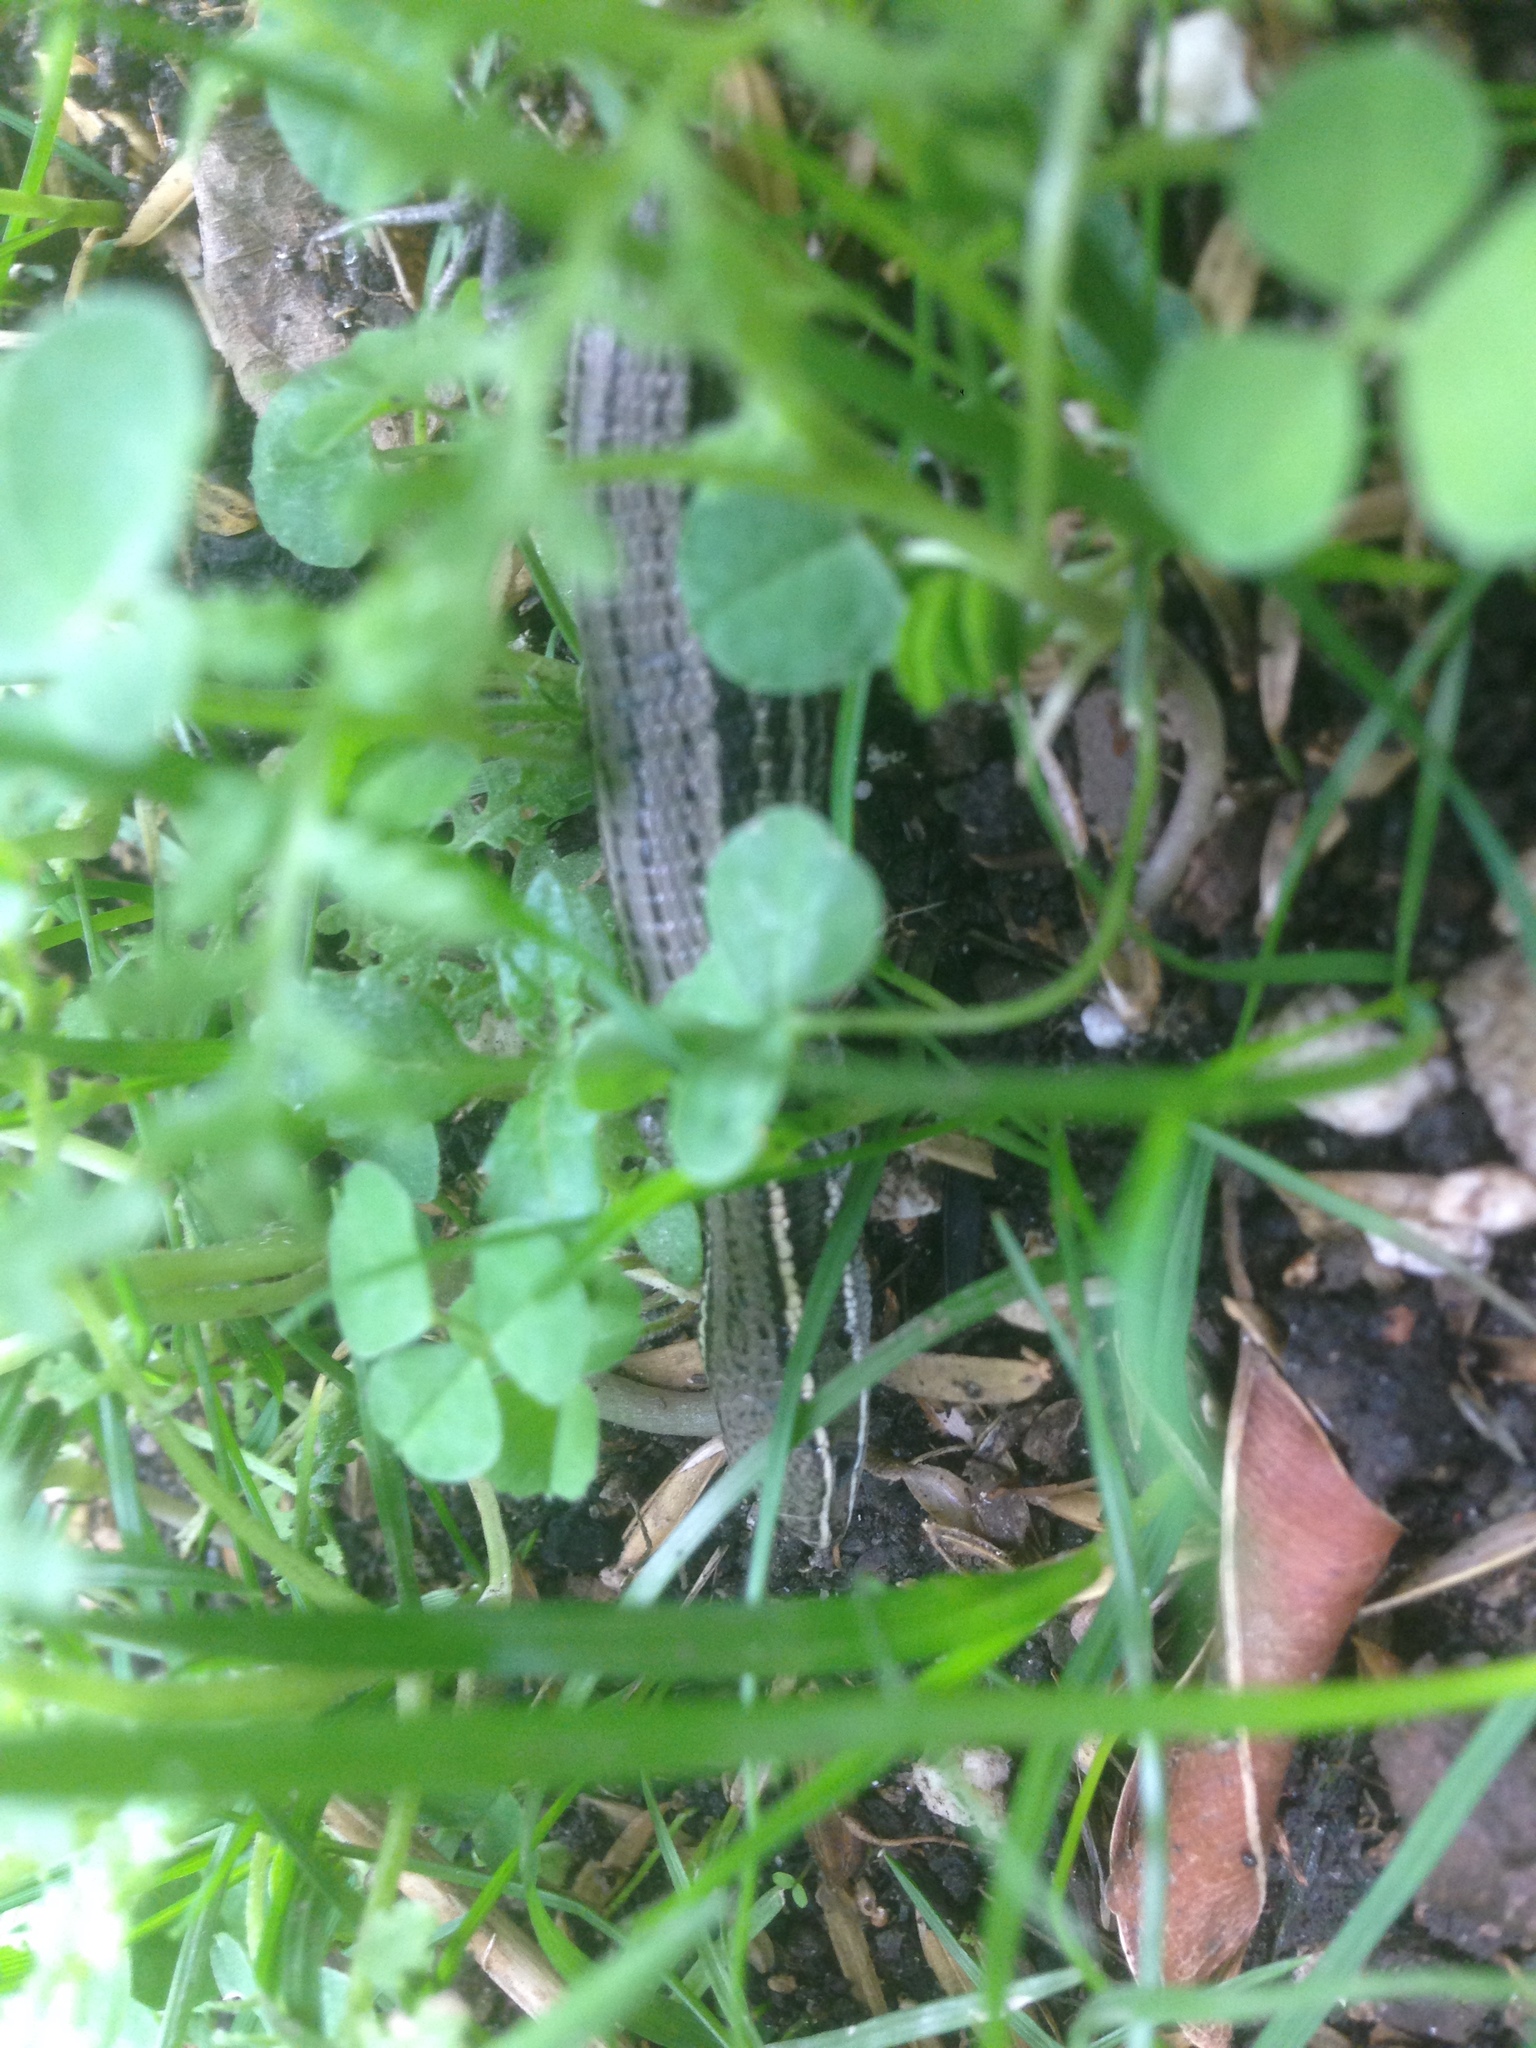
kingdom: Animalia
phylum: Chordata
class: Squamata
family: Gymnophthalmidae
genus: Pholidobolus
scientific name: Pholidobolus montium
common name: Mountain pholidobolus
